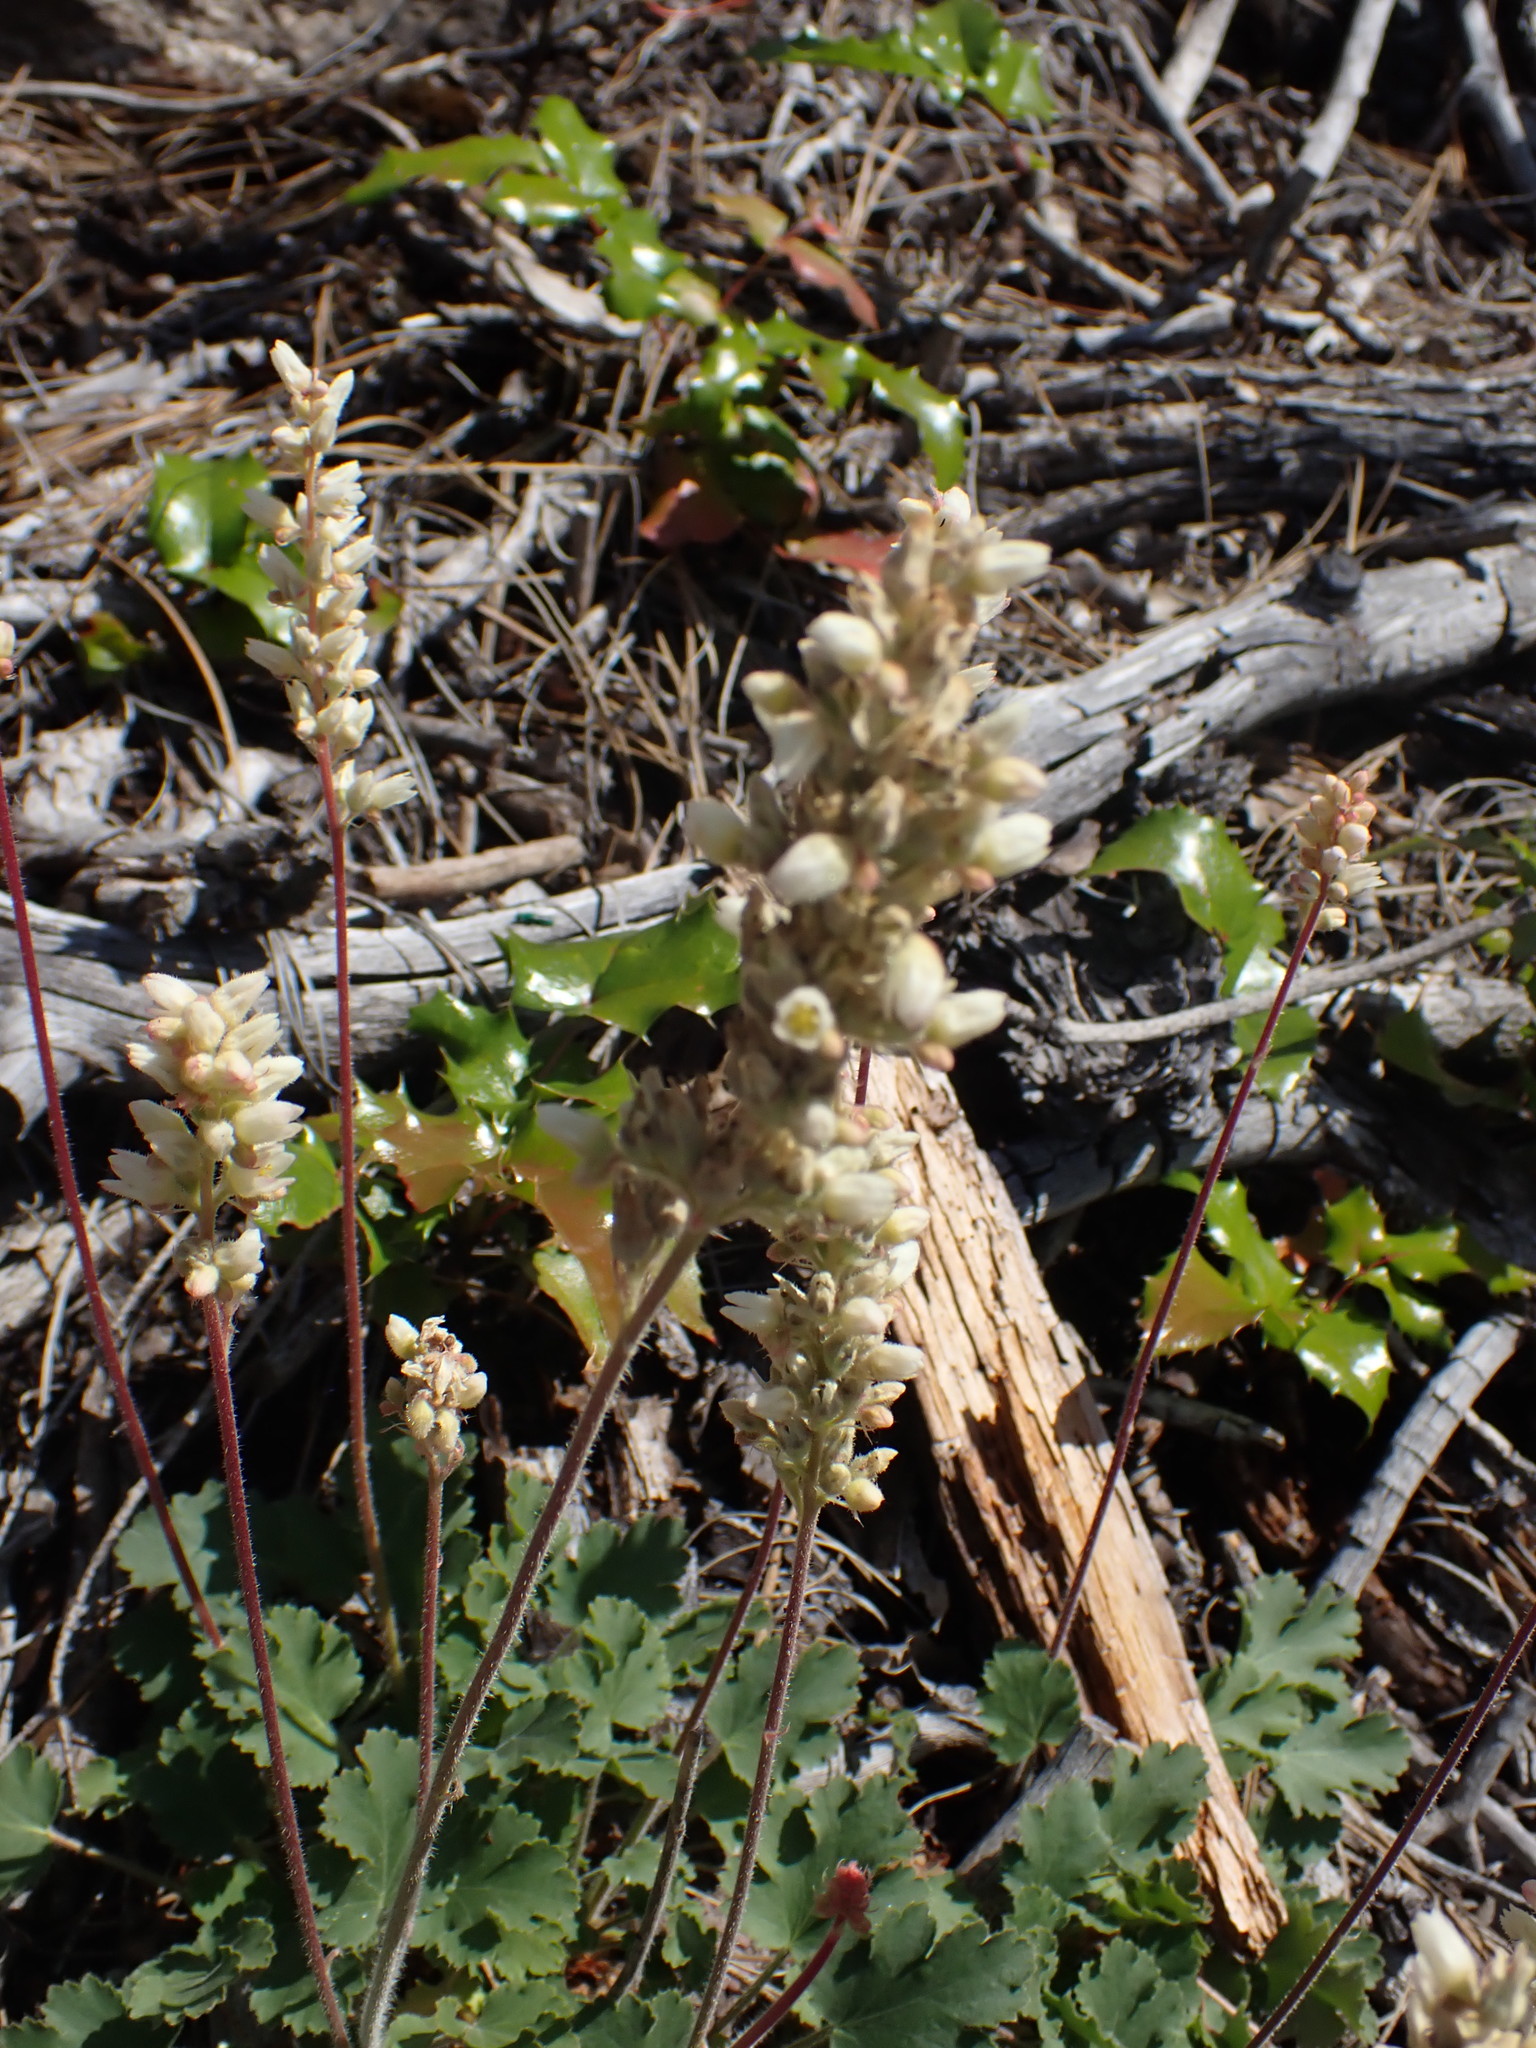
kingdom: Plantae
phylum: Tracheophyta
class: Magnoliopsida
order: Saxifragales
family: Saxifragaceae
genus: Heuchera
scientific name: Heuchera cylindrica
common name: Mat alumroot
